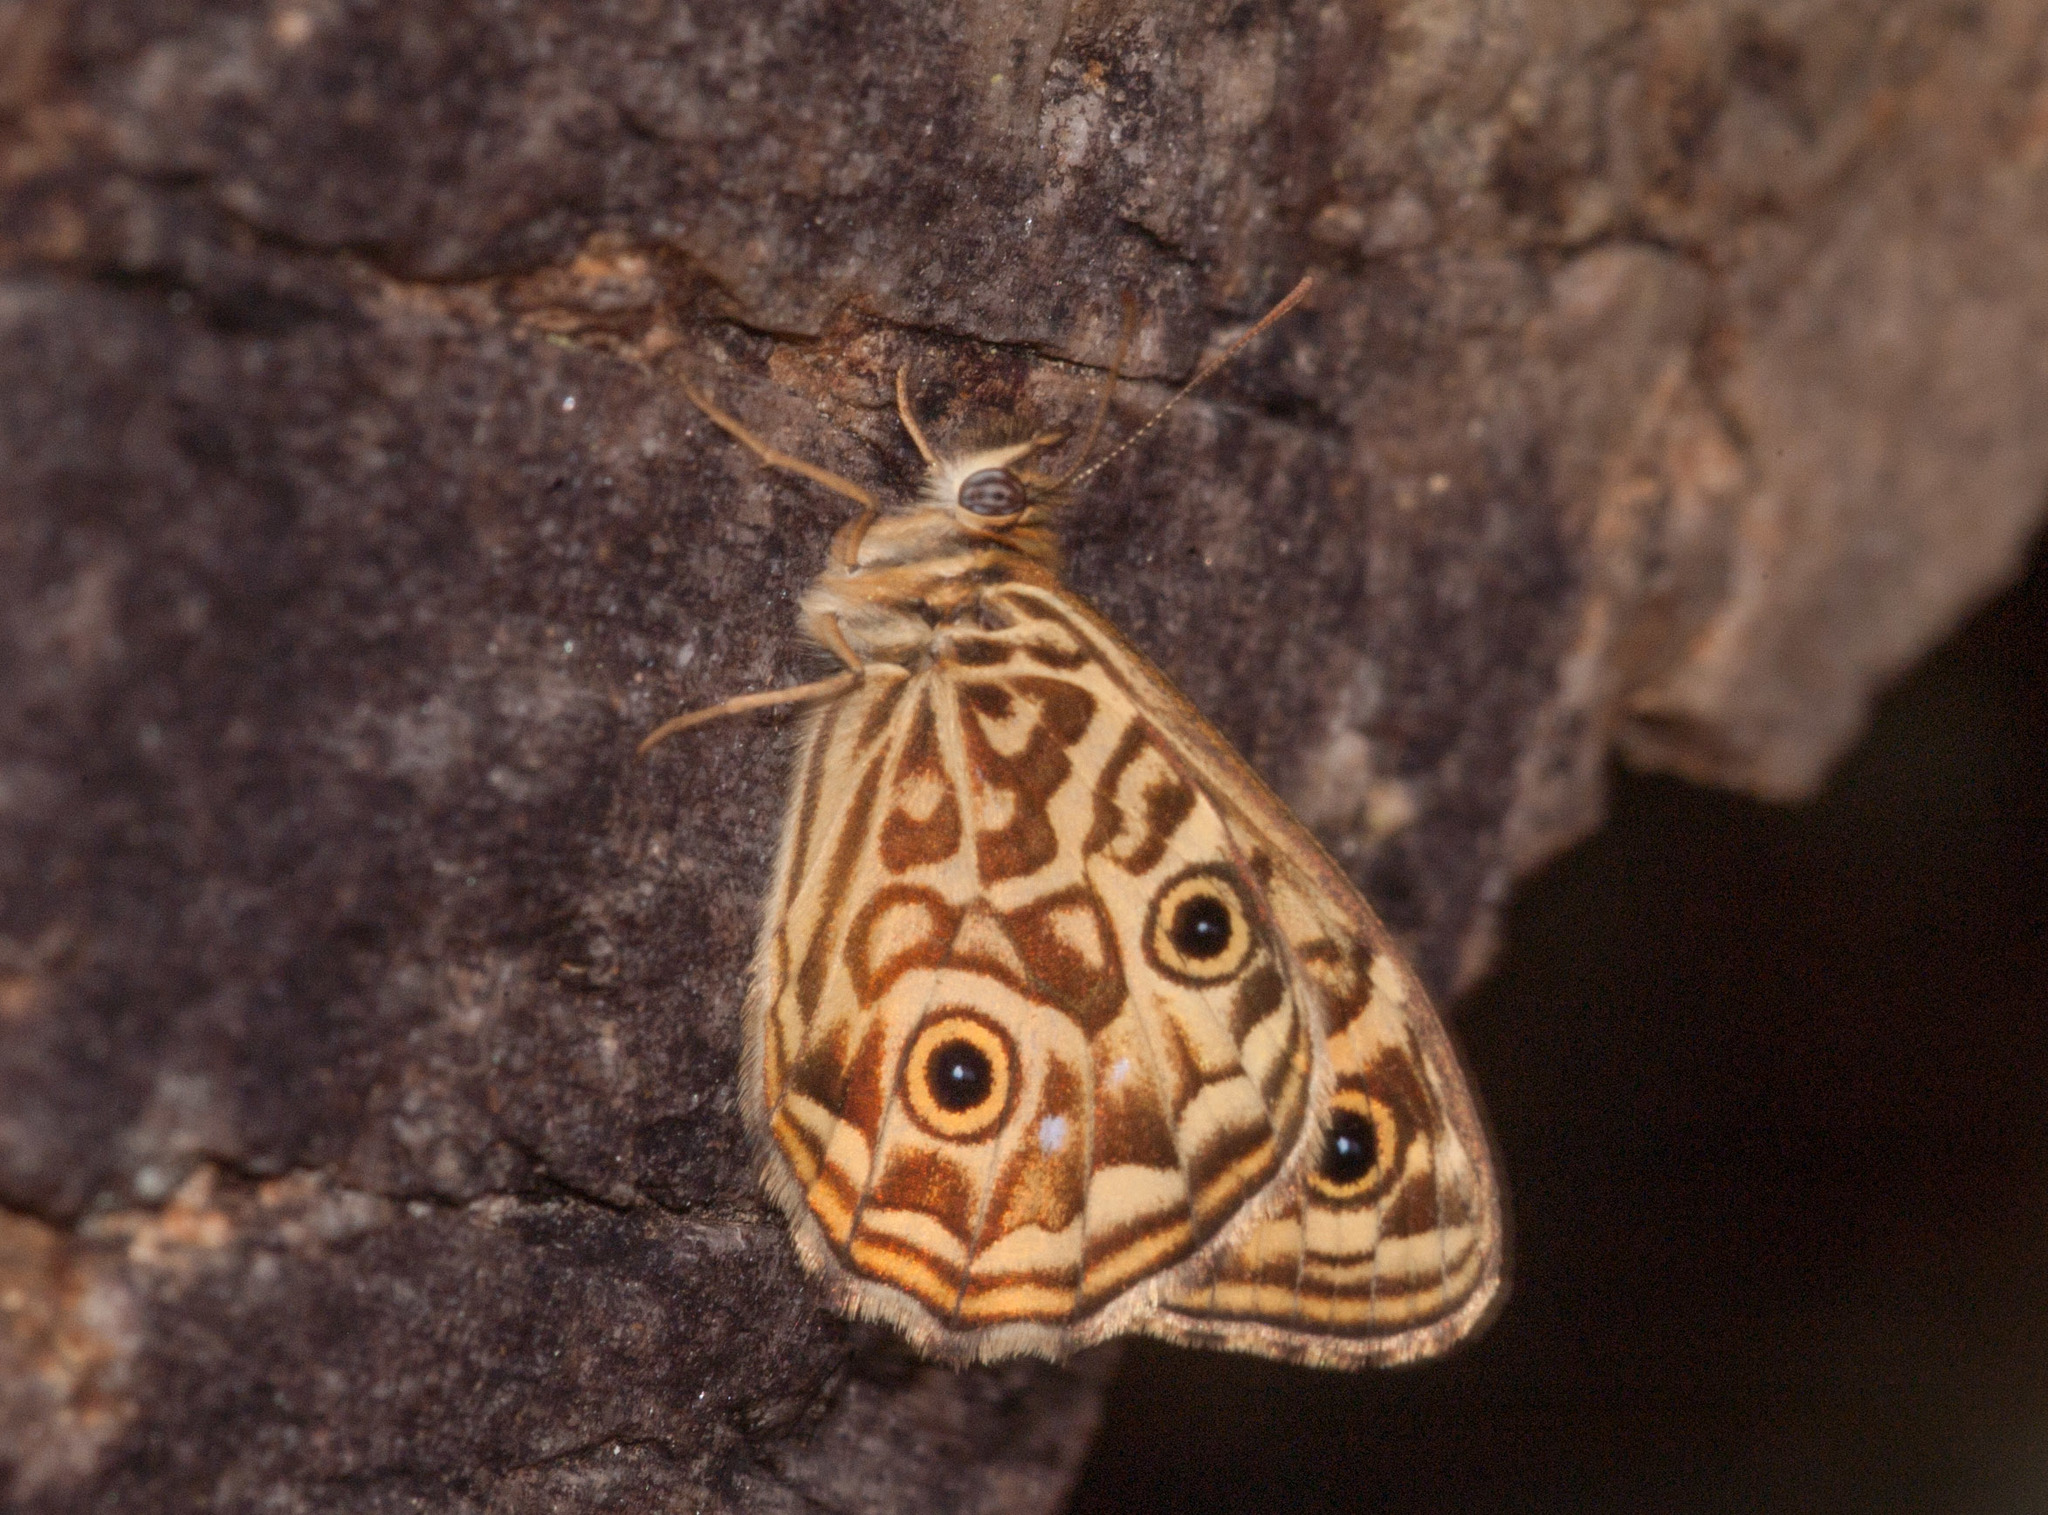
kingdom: Animalia
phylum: Arthropoda
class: Insecta
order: Lepidoptera
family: Nymphalidae
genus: Geitoneura
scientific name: Geitoneura acantha
